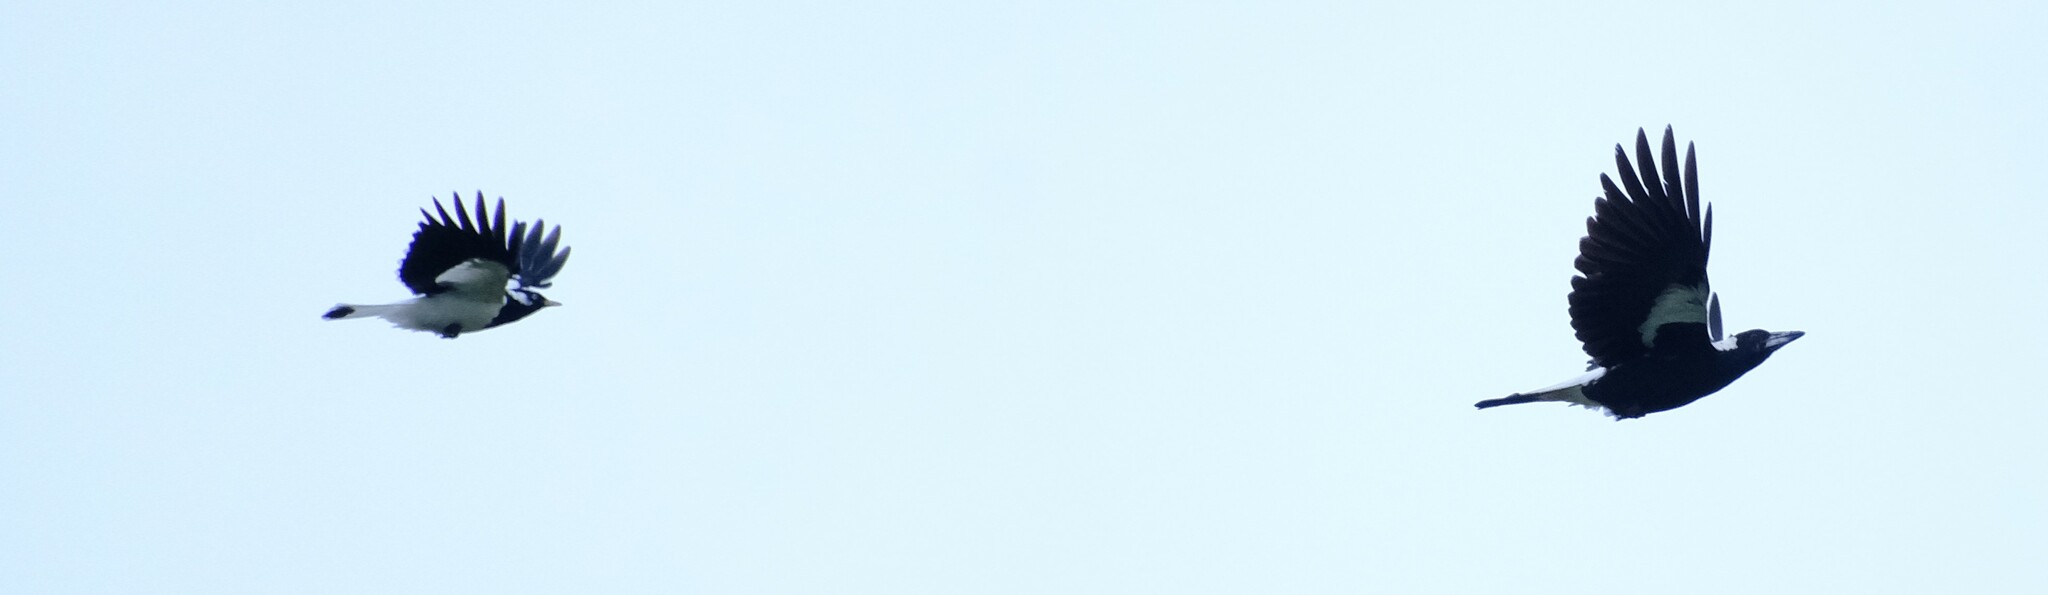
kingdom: Animalia
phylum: Chordata
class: Aves
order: Passeriformes
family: Monarchidae
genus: Grallina
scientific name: Grallina cyanoleuca
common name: Magpie-lark
